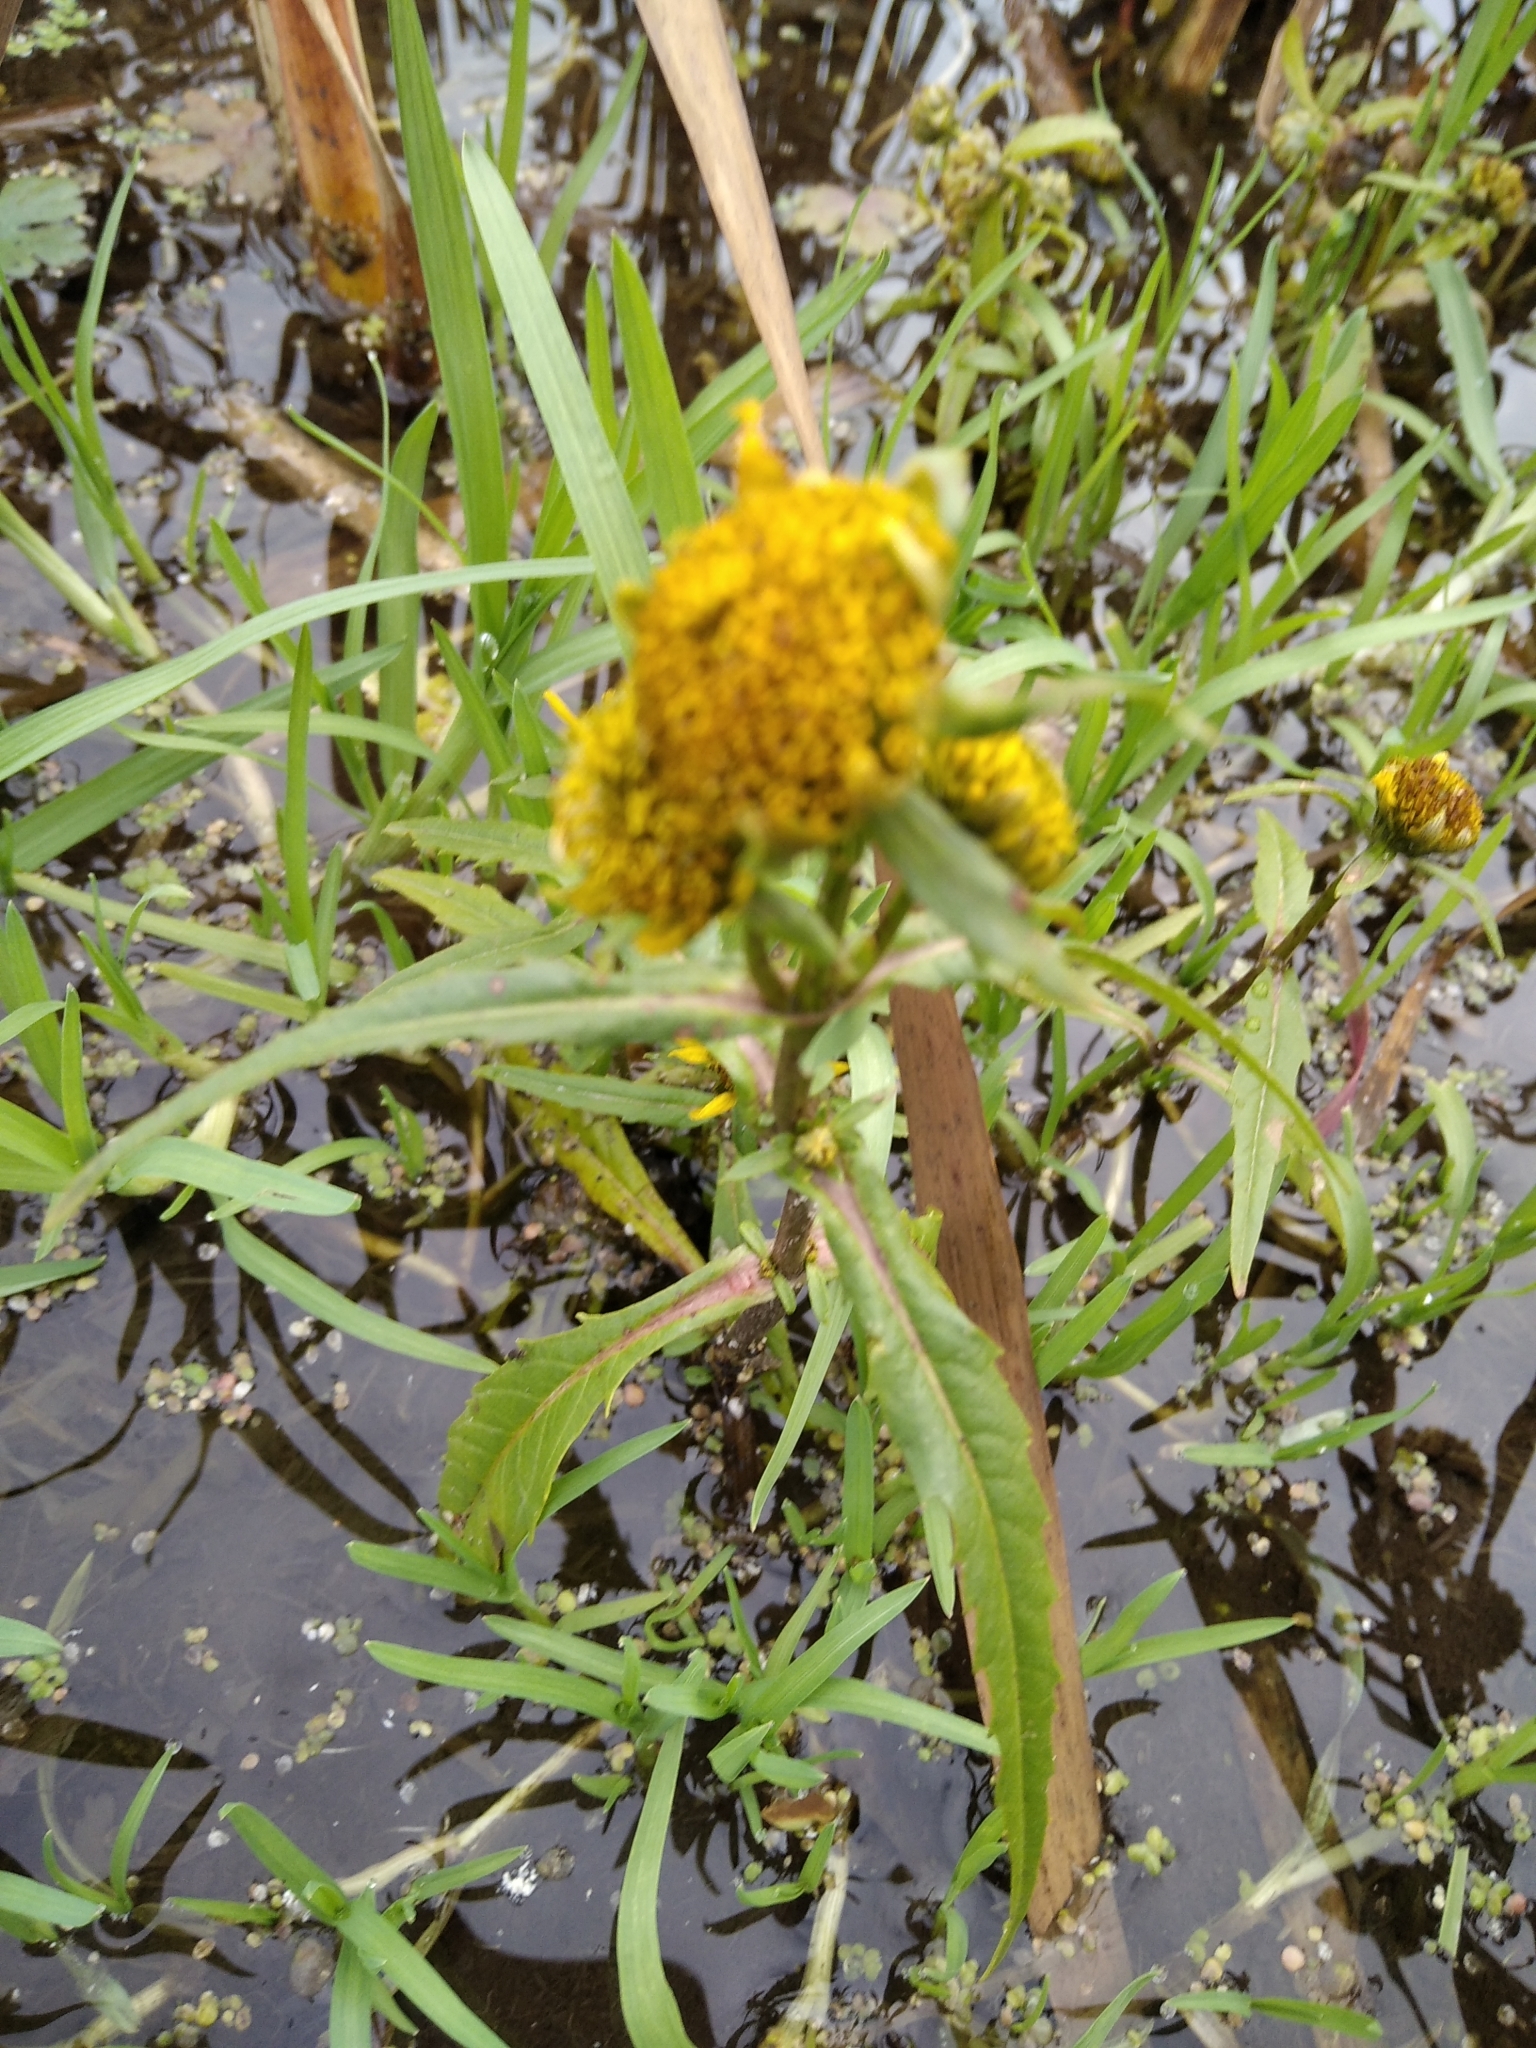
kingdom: Plantae
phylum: Tracheophyta
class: Magnoliopsida
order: Asterales
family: Asteraceae
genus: Bidens
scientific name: Bidens cernua
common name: Nodding bur-marigold
